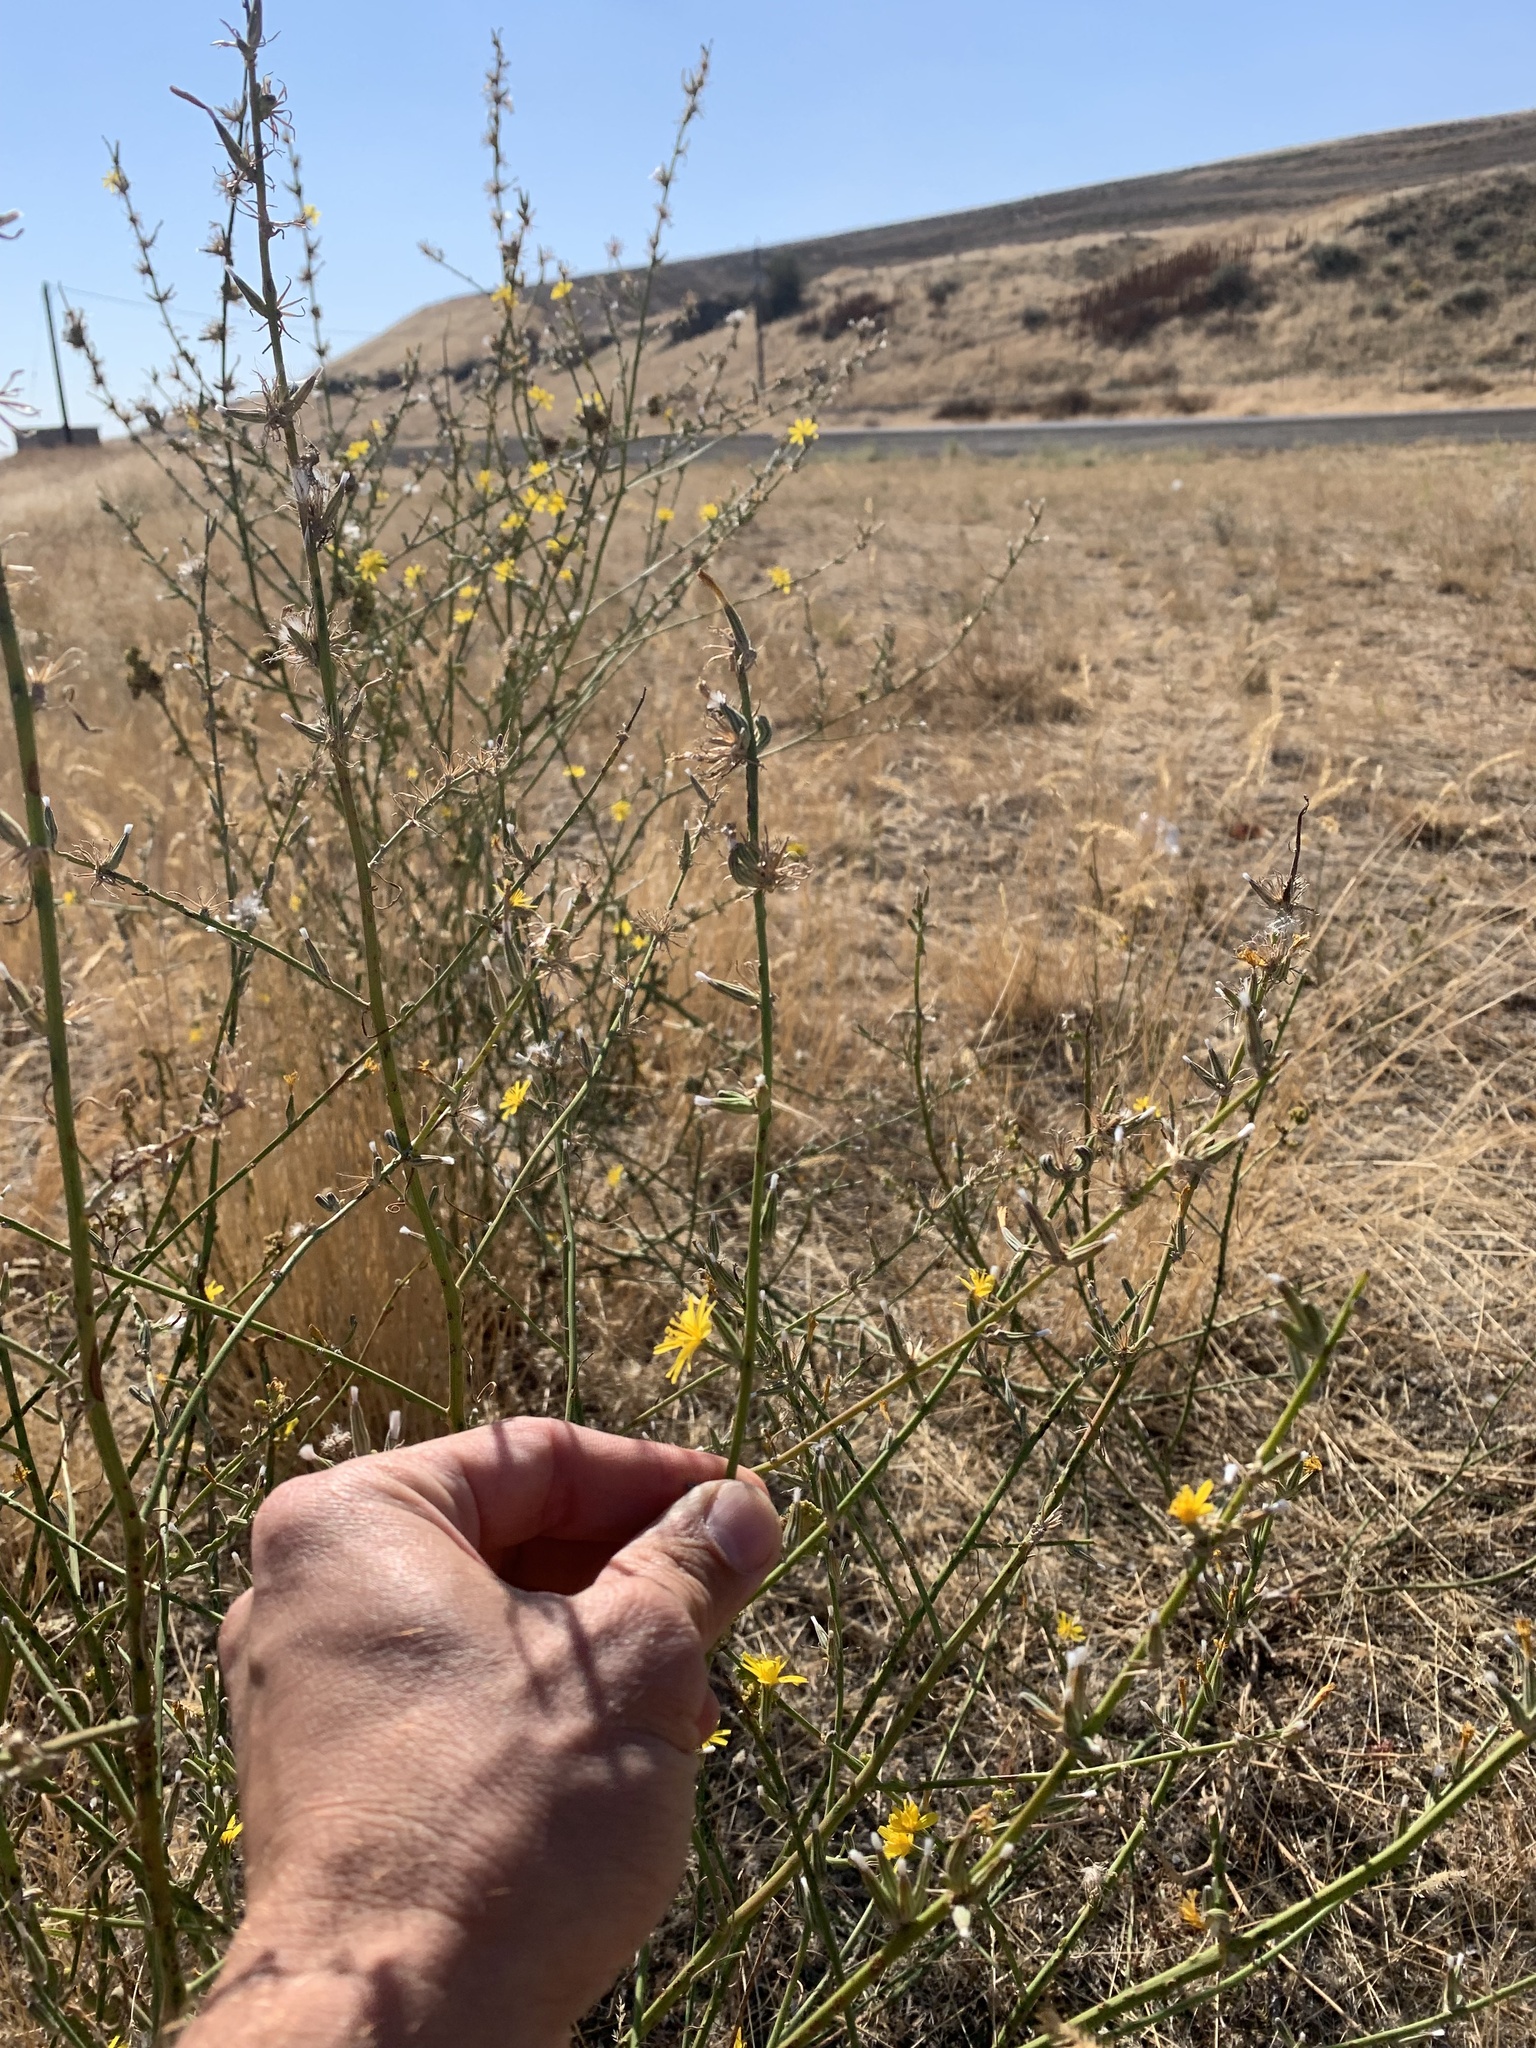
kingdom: Plantae
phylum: Tracheophyta
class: Magnoliopsida
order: Asterales
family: Asteraceae
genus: Chondrilla
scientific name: Chondrilla juncea
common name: Skeleton weed
